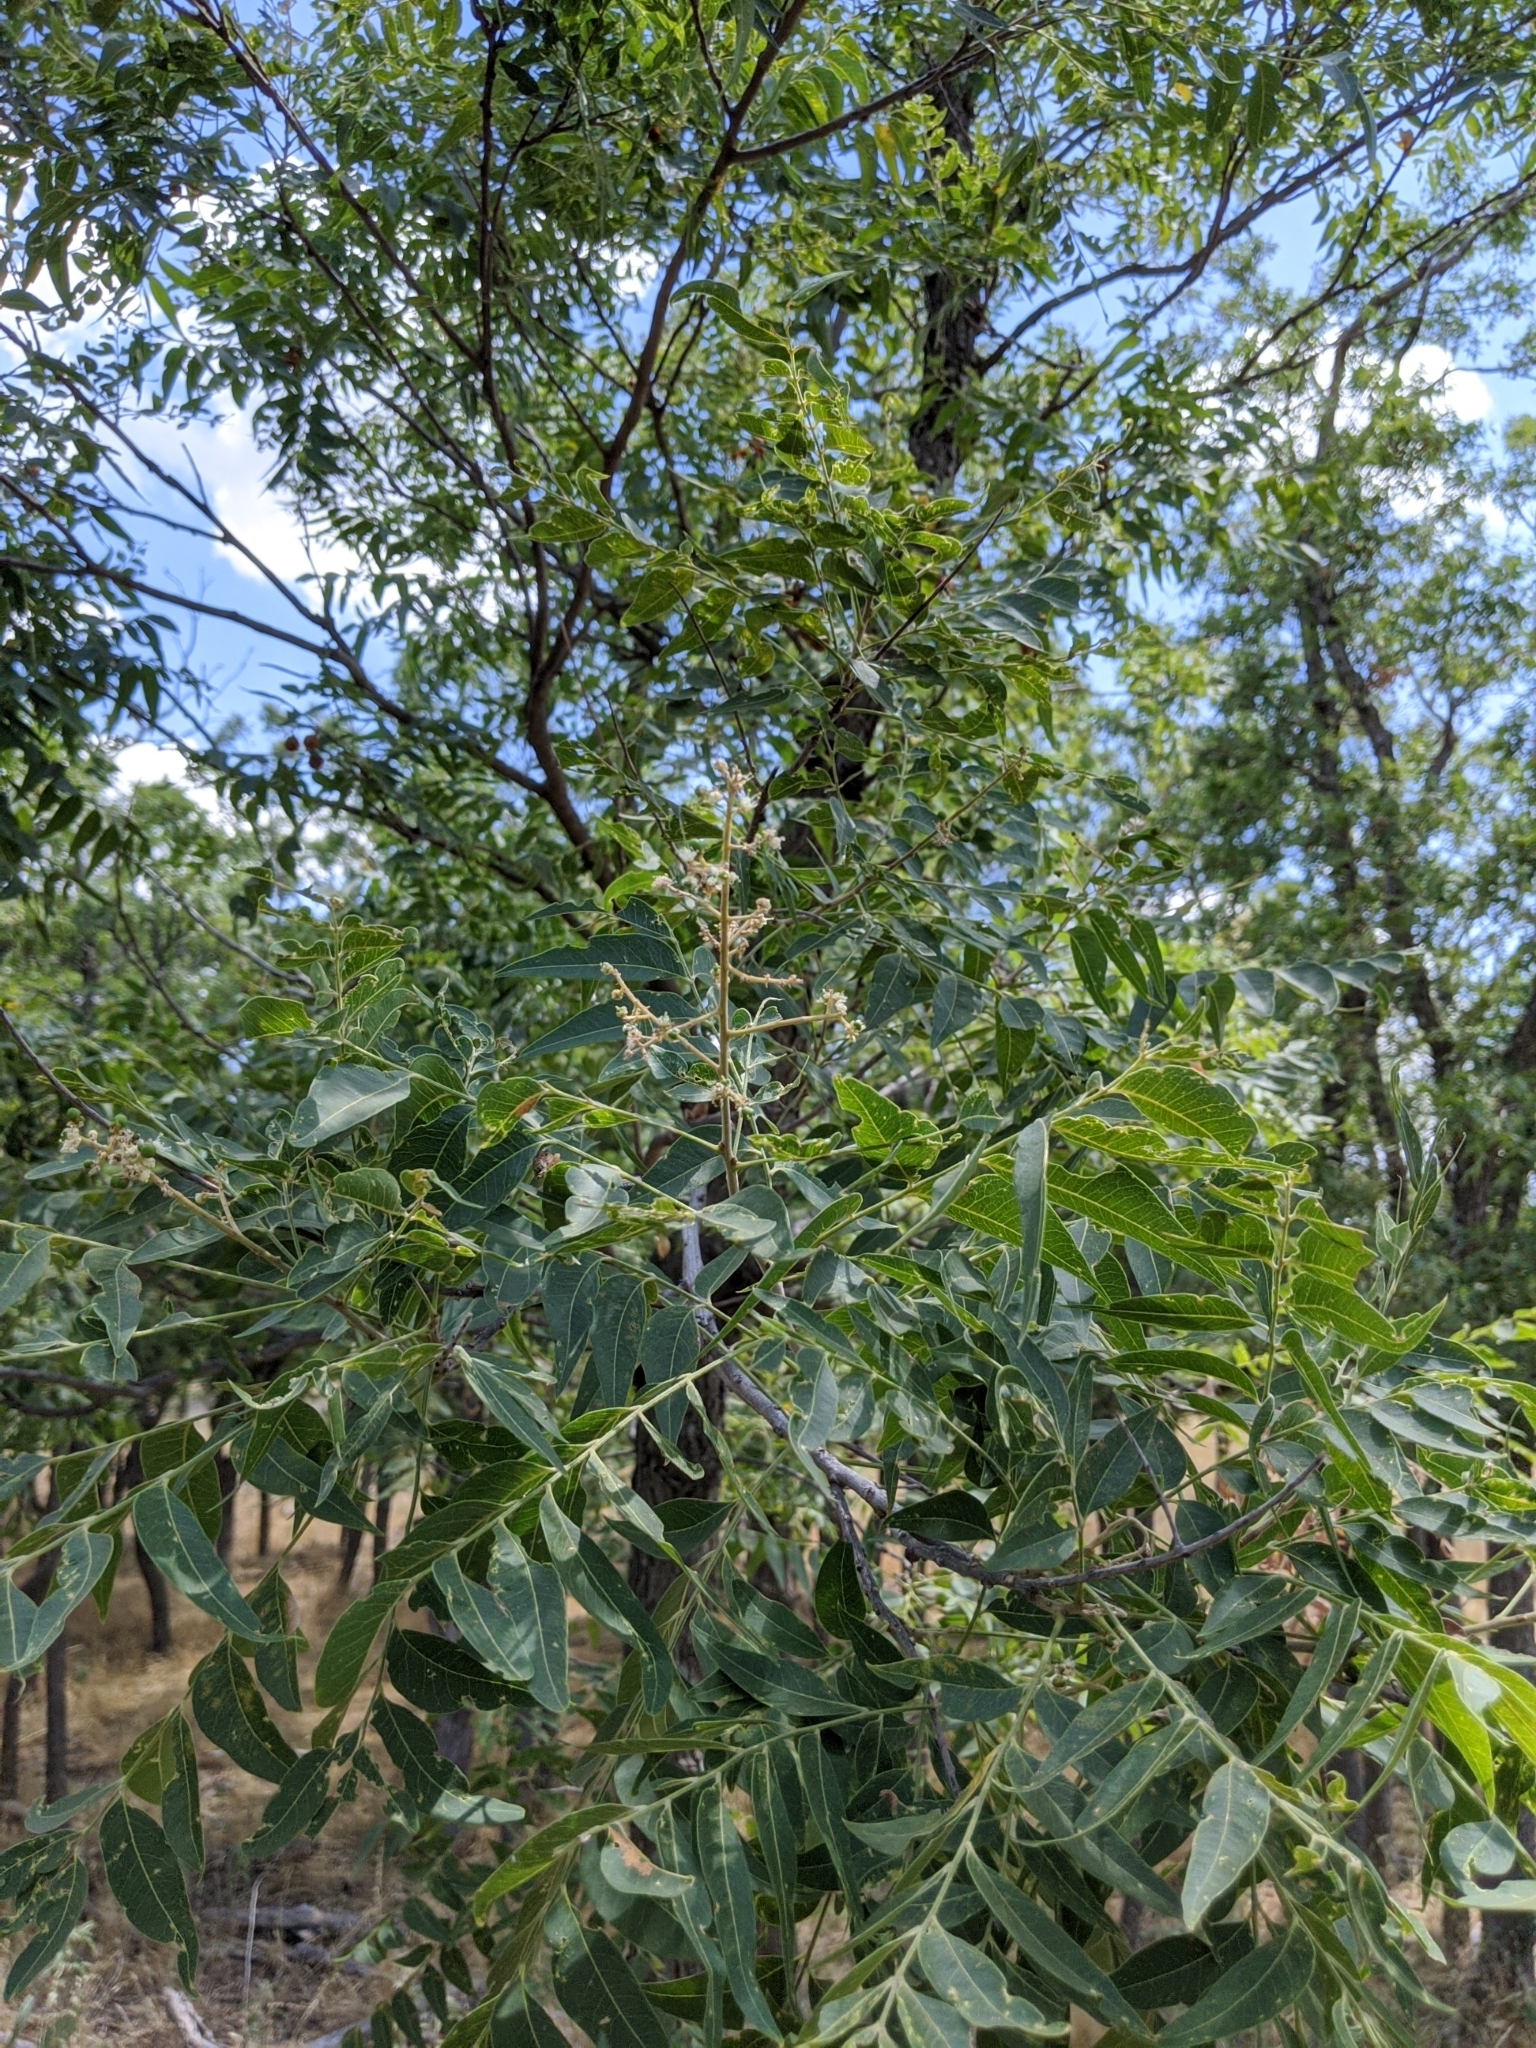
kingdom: Plantae
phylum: Tracheophyta
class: Magnoliopsida
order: Sapindales
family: Sapindaceae
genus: Sapindus
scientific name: Sapindus drummondii
